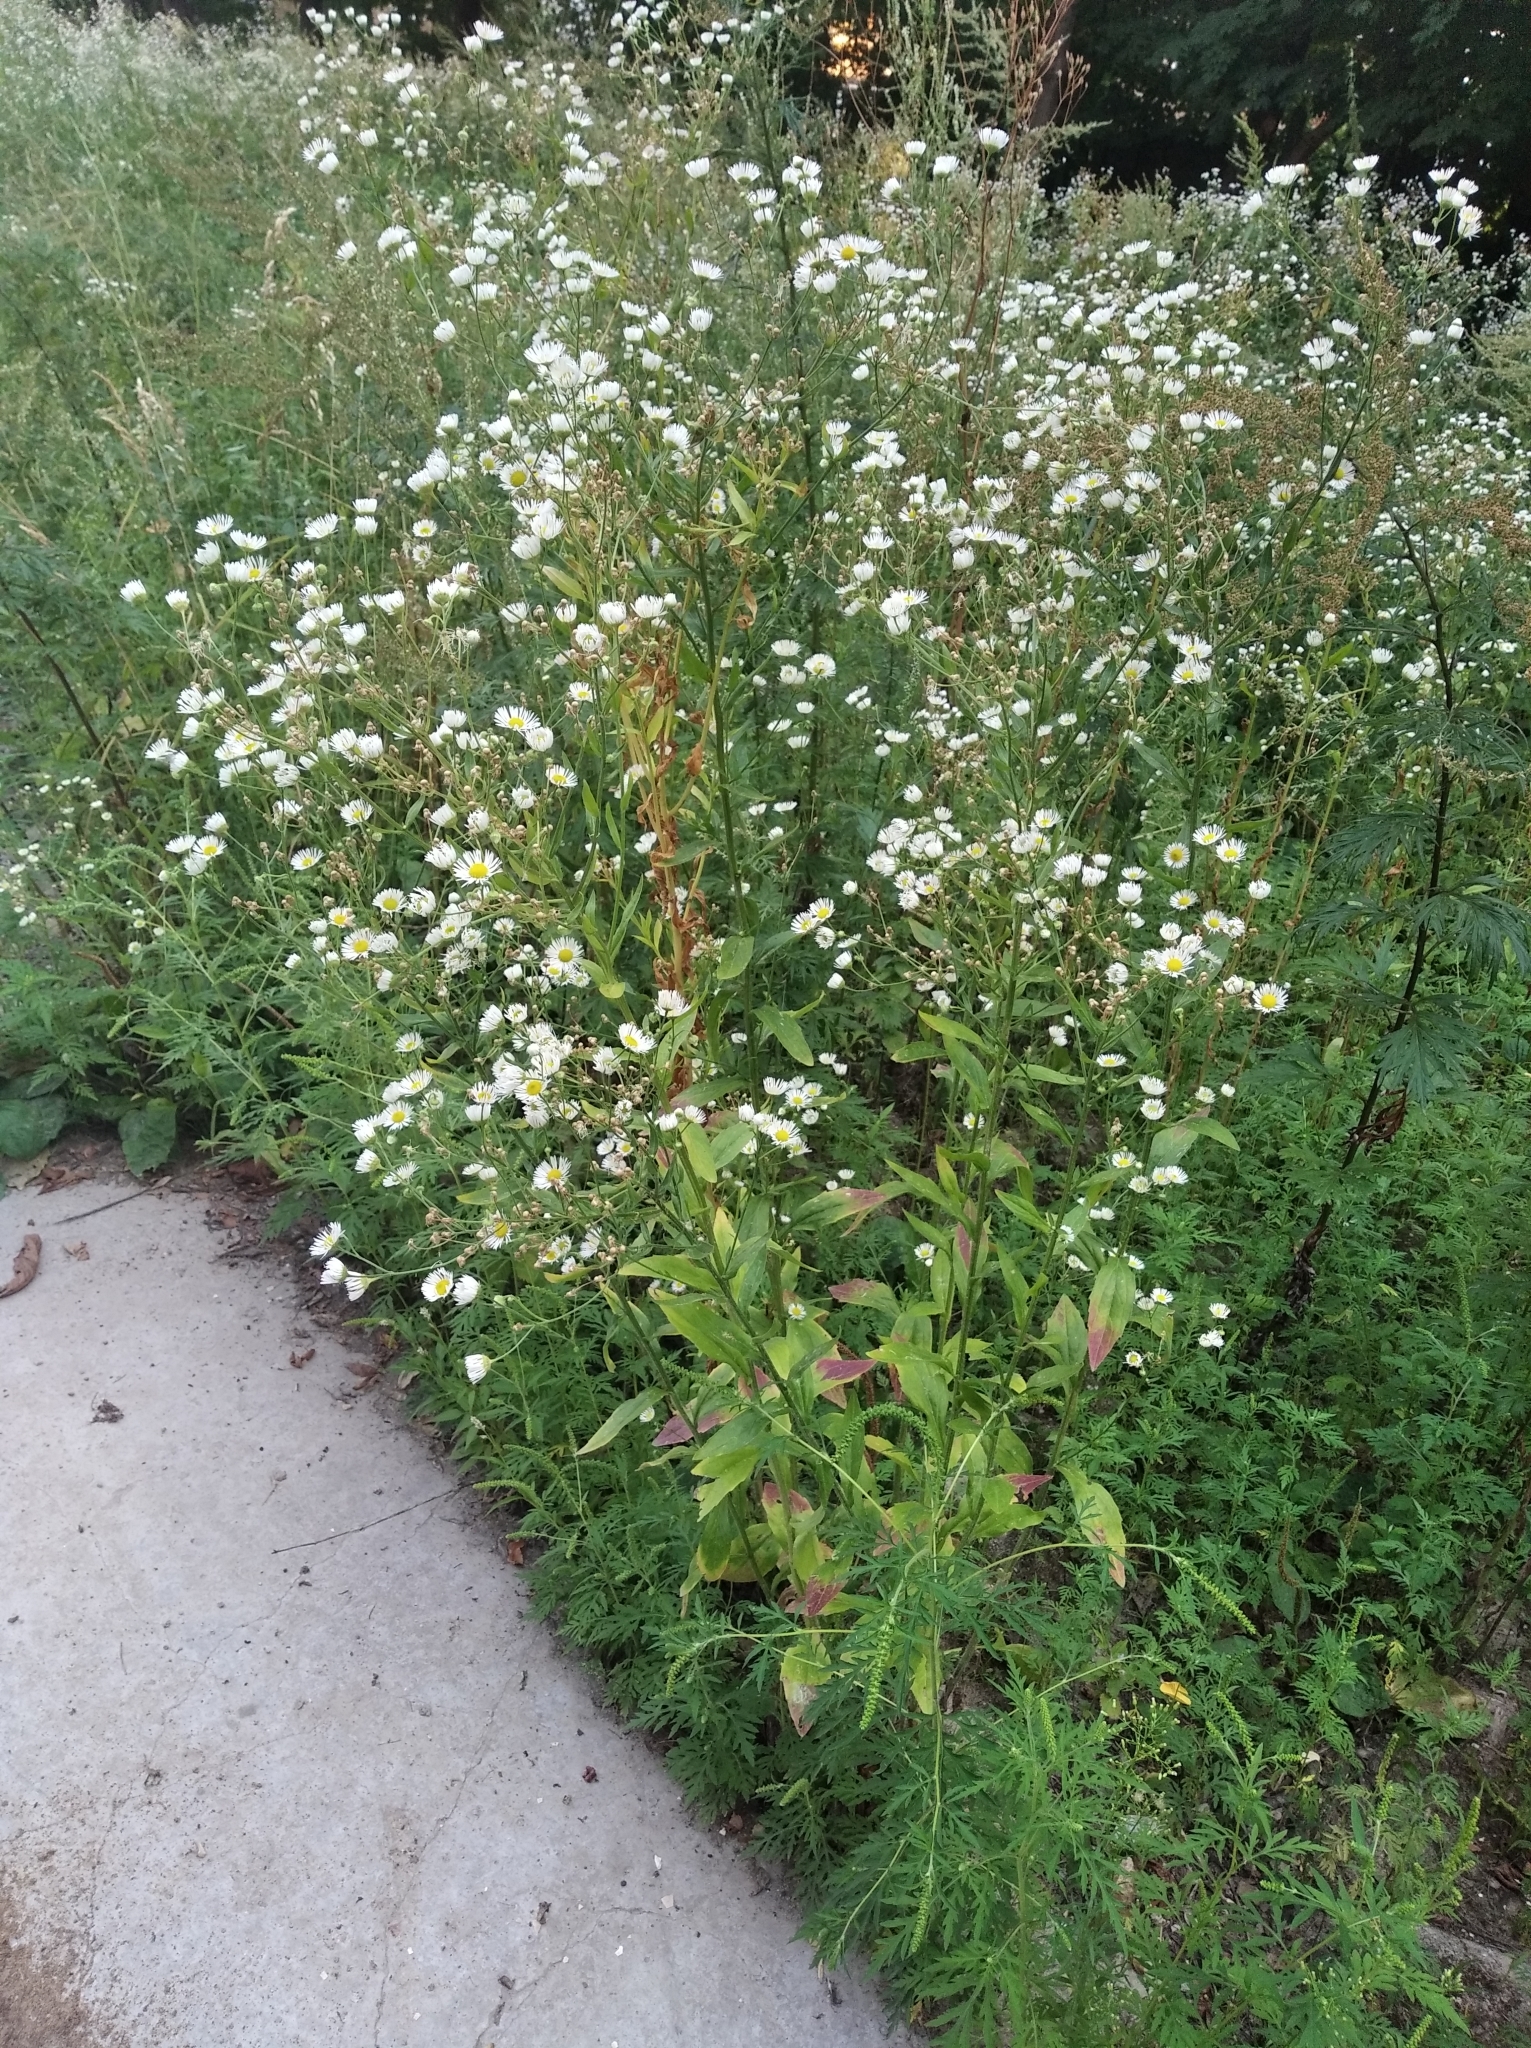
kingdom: Plantae
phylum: Tracheophyta
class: Magnoliopsida
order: Asterales
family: Asteraceae
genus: Erigeron
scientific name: Erigeron annuus
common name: Tall fleabane
